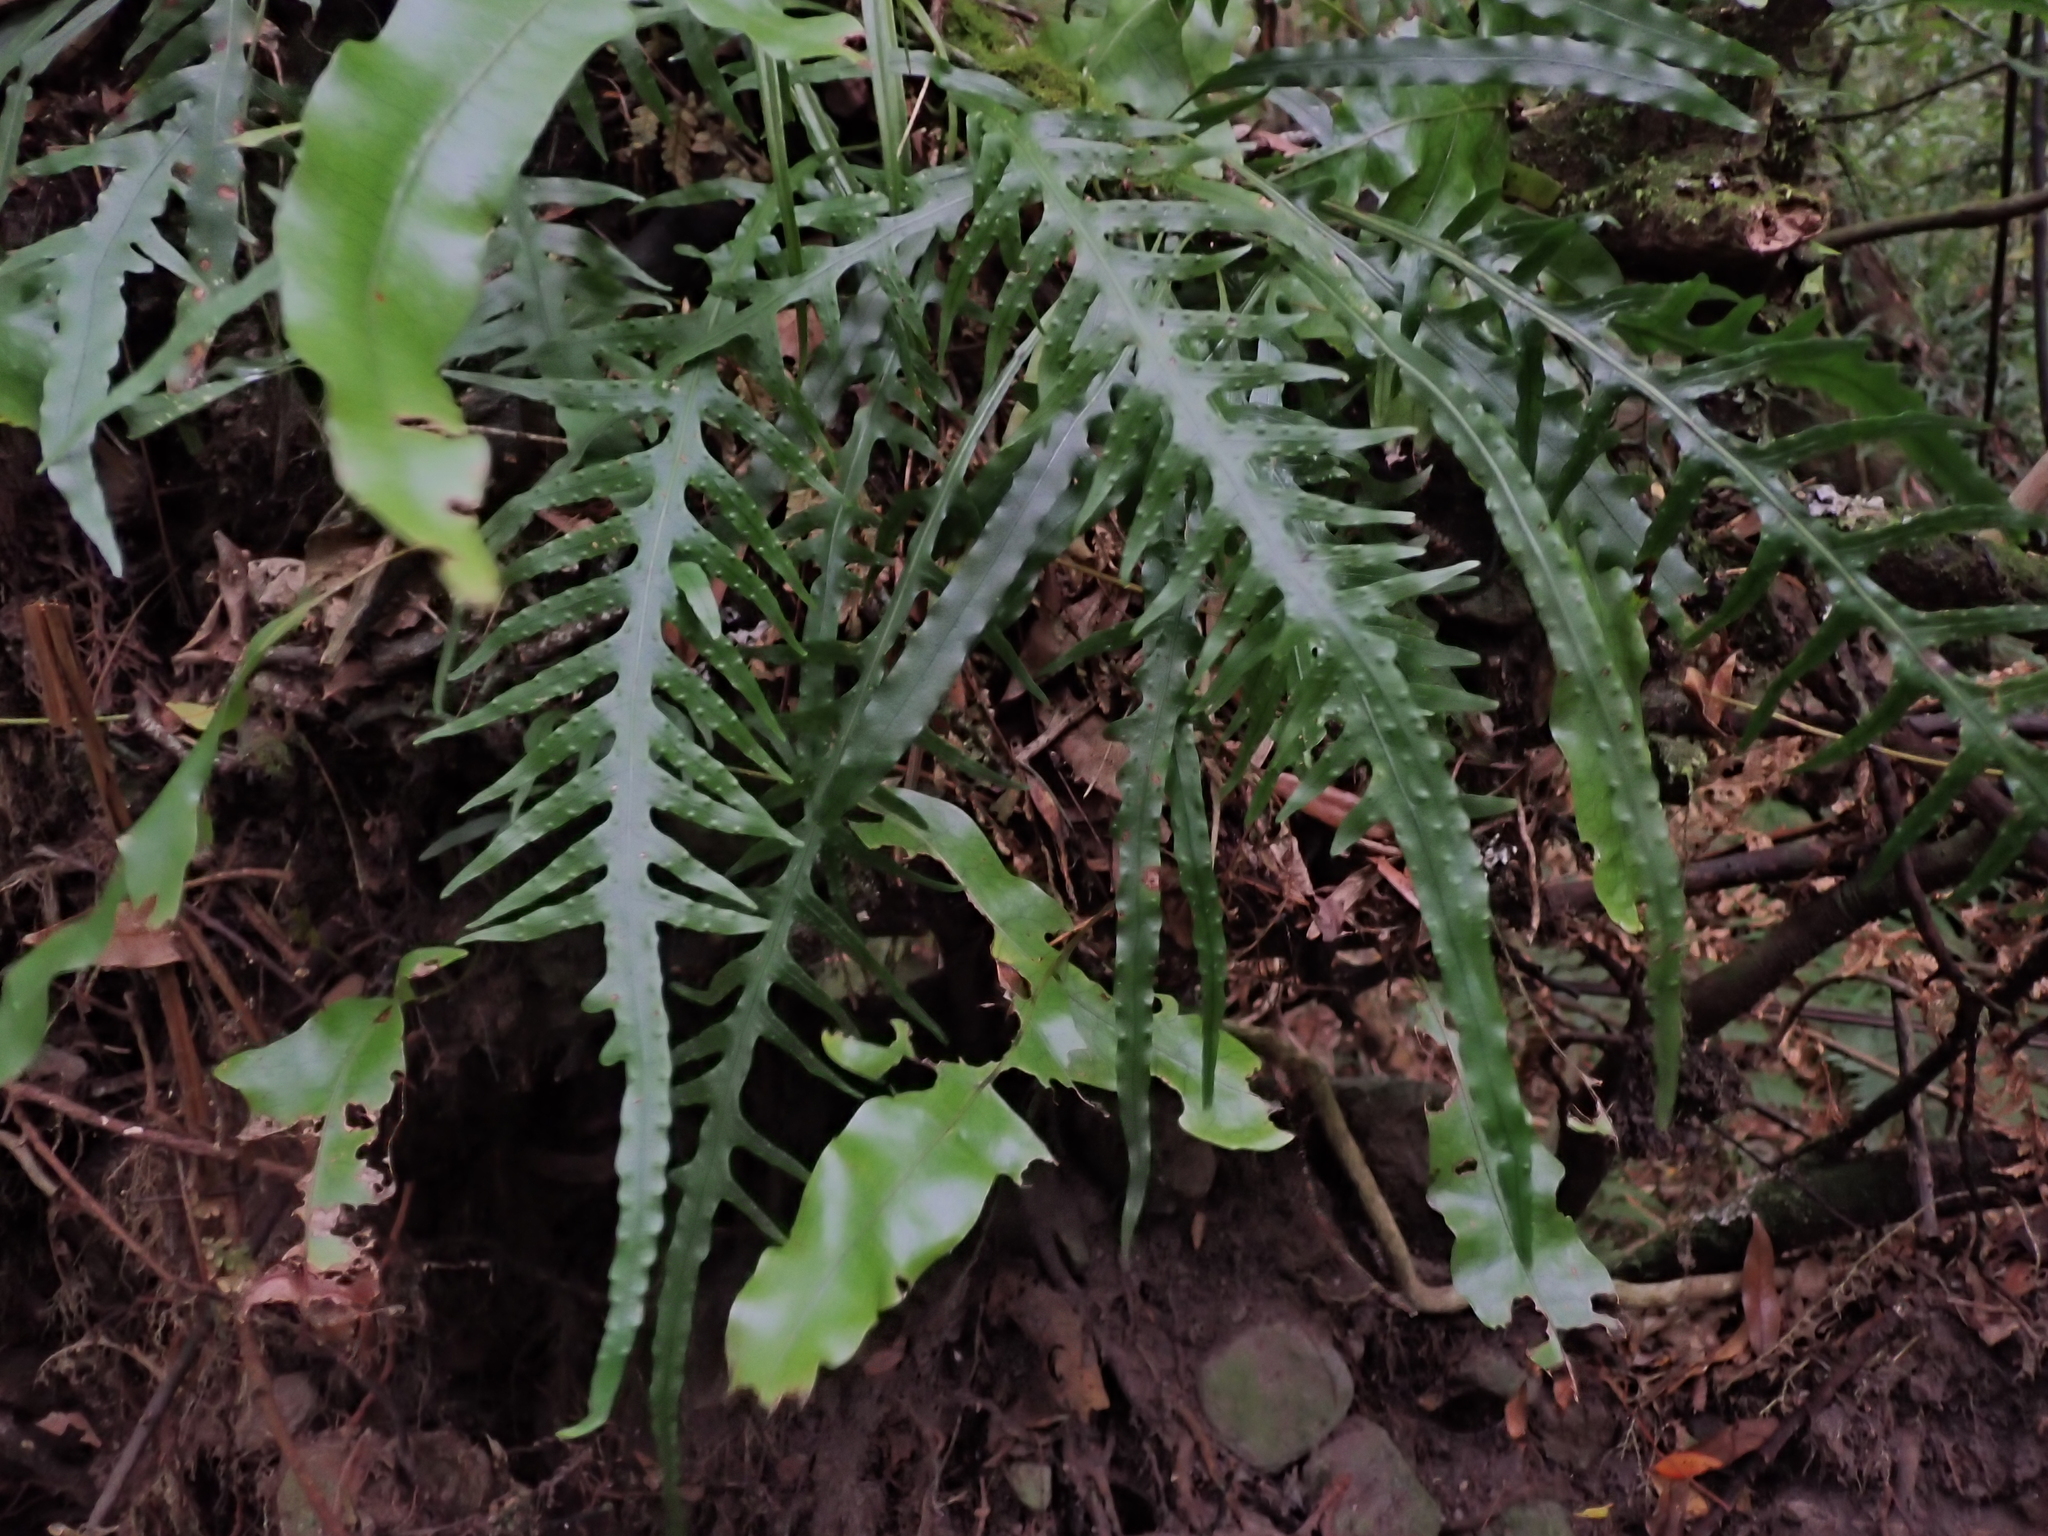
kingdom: Plantae
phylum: Tracheophyta
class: Polypodiopsida
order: Polypodiales
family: Polypodiaceae
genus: Lecanopteris
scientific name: Lecanopteris scandens
